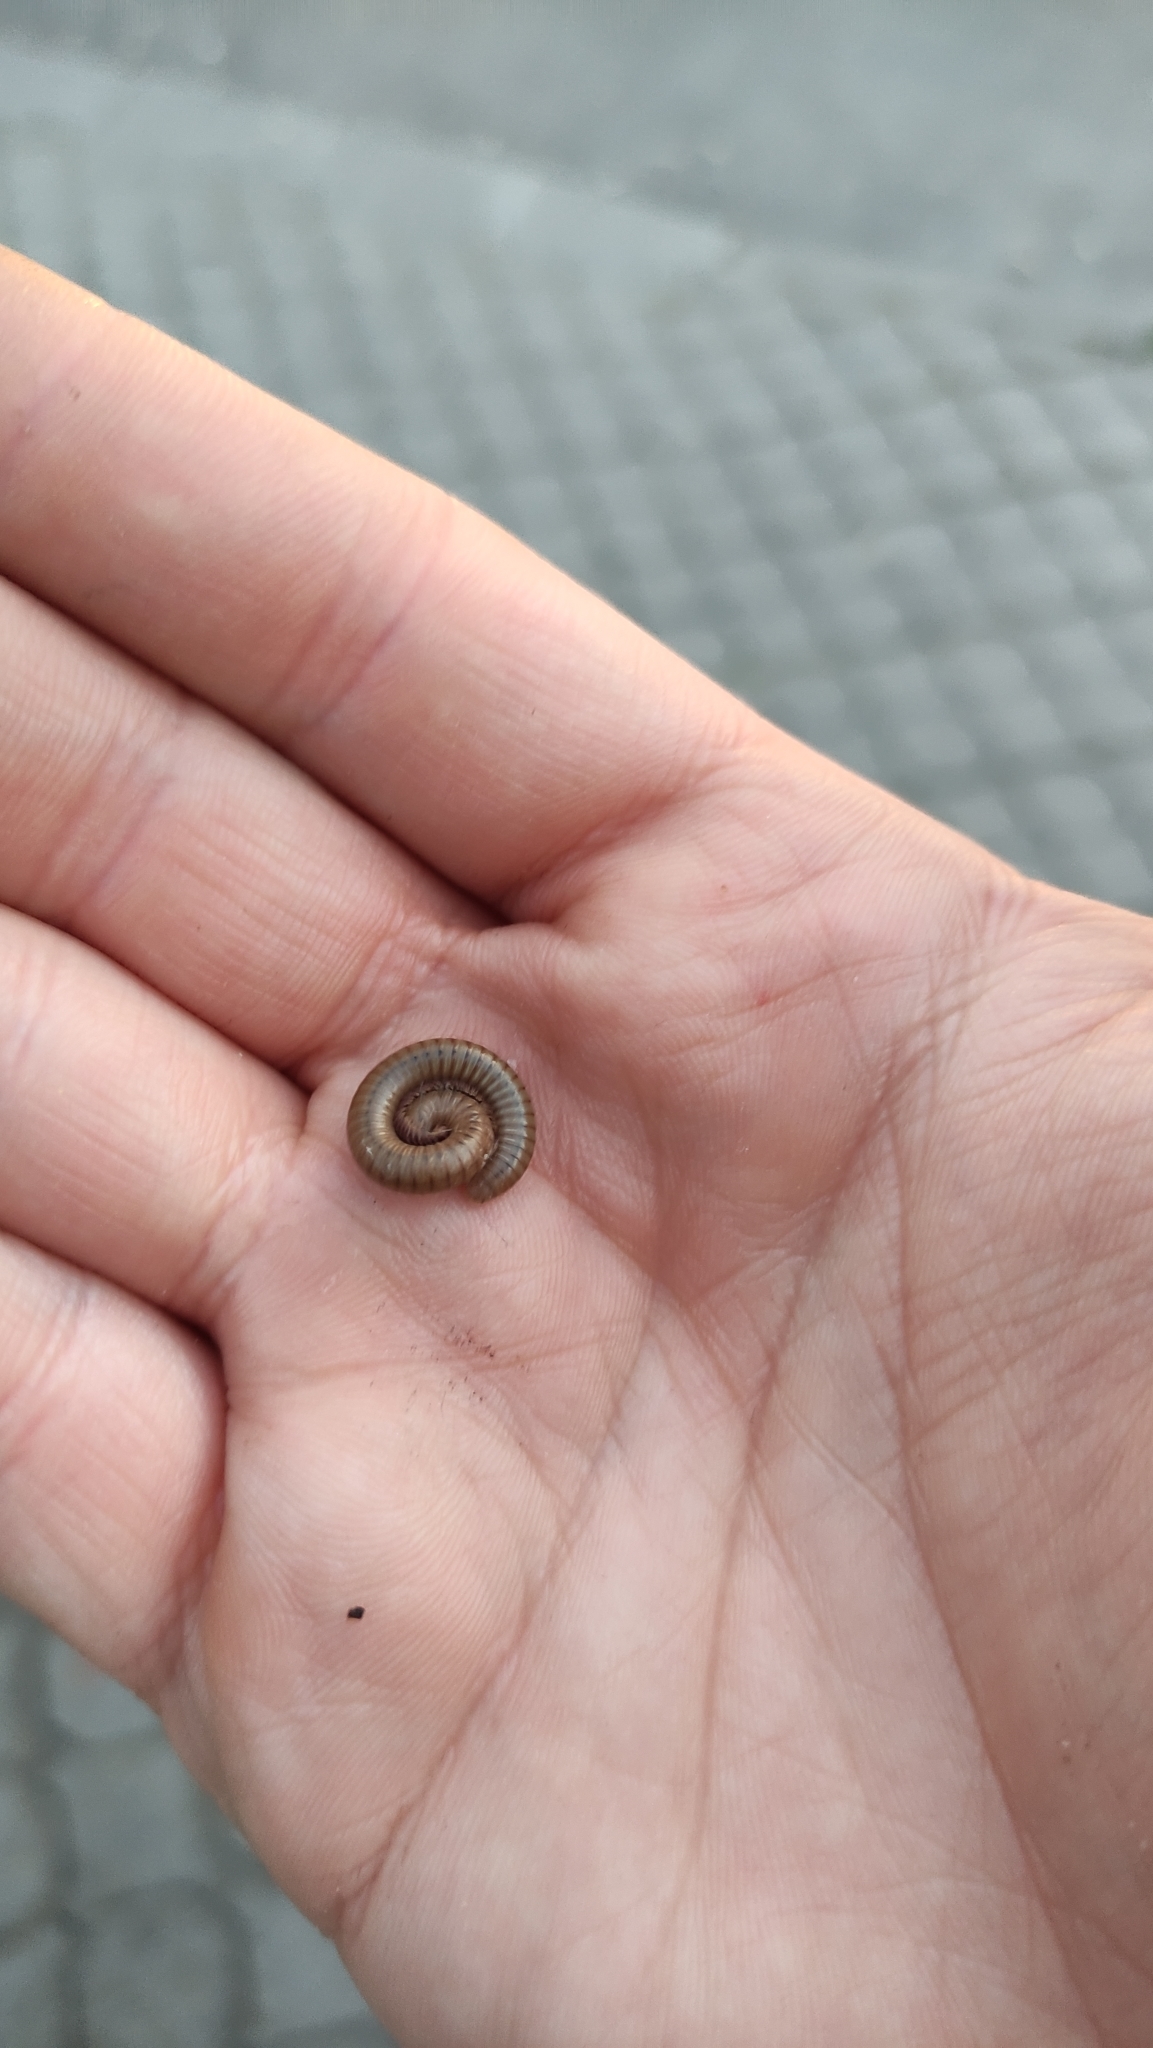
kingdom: Animalia
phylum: Arthropoda
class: Diplopoda
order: Julida
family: Julidae
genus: Pachyiulus
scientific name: Pachyiulus cattarensis
